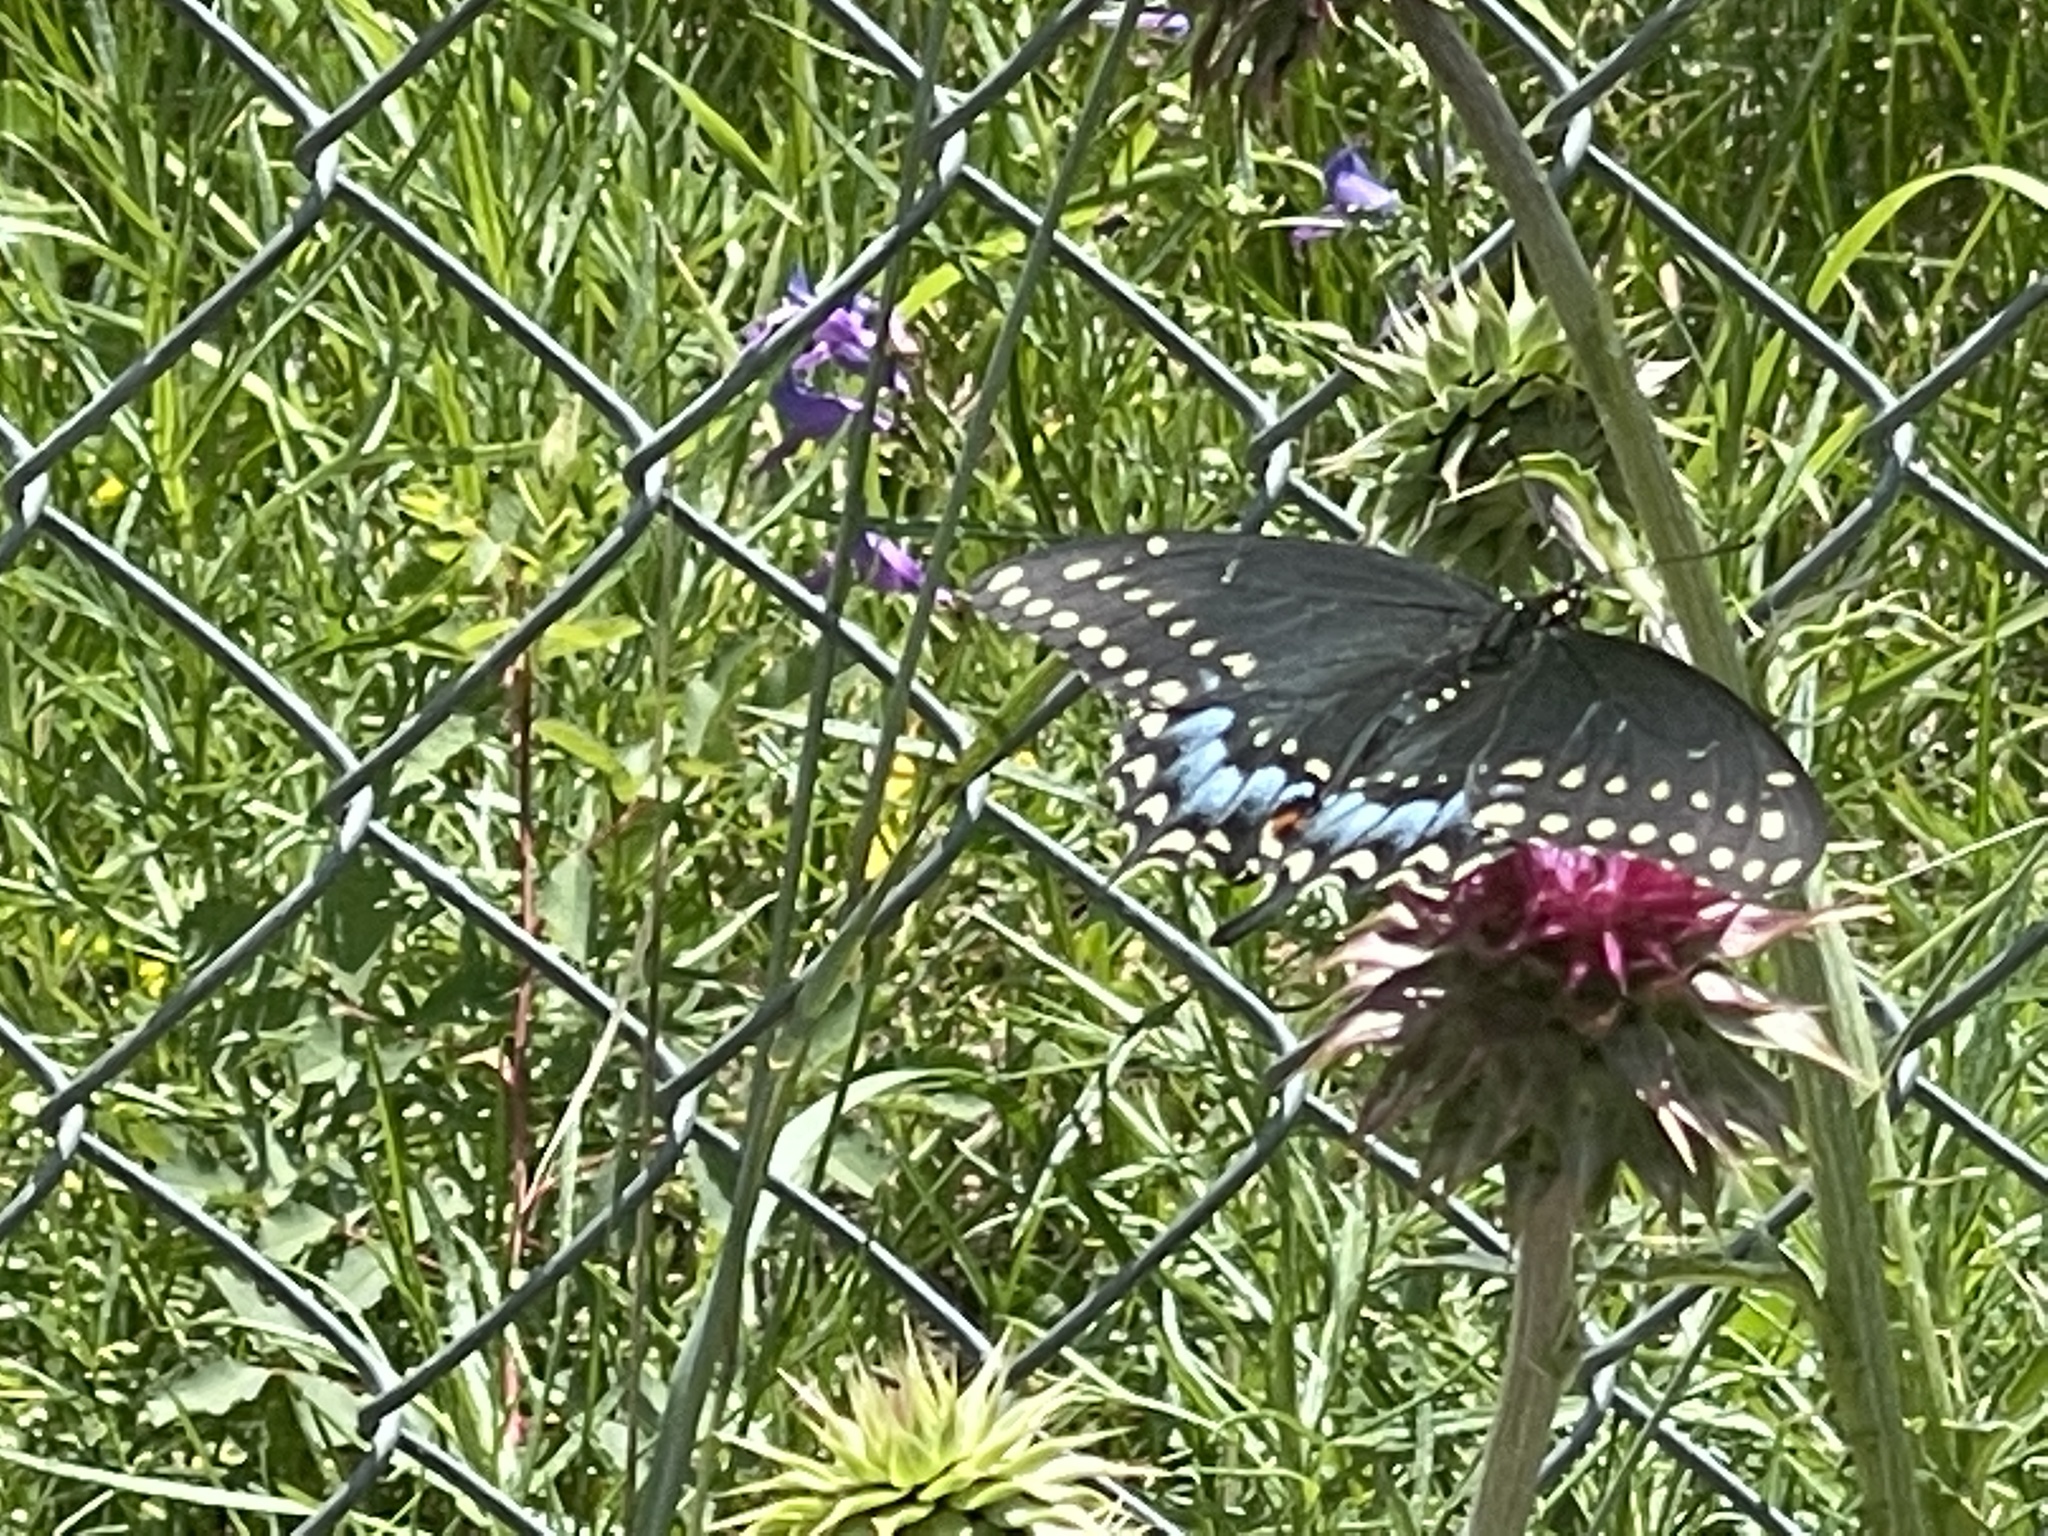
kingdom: Animalia
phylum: Arthropoda
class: Insecta
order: Lepidoptera
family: Papilionidae
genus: Papilio
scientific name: Papilio polyxenes
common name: Black swallowtail
